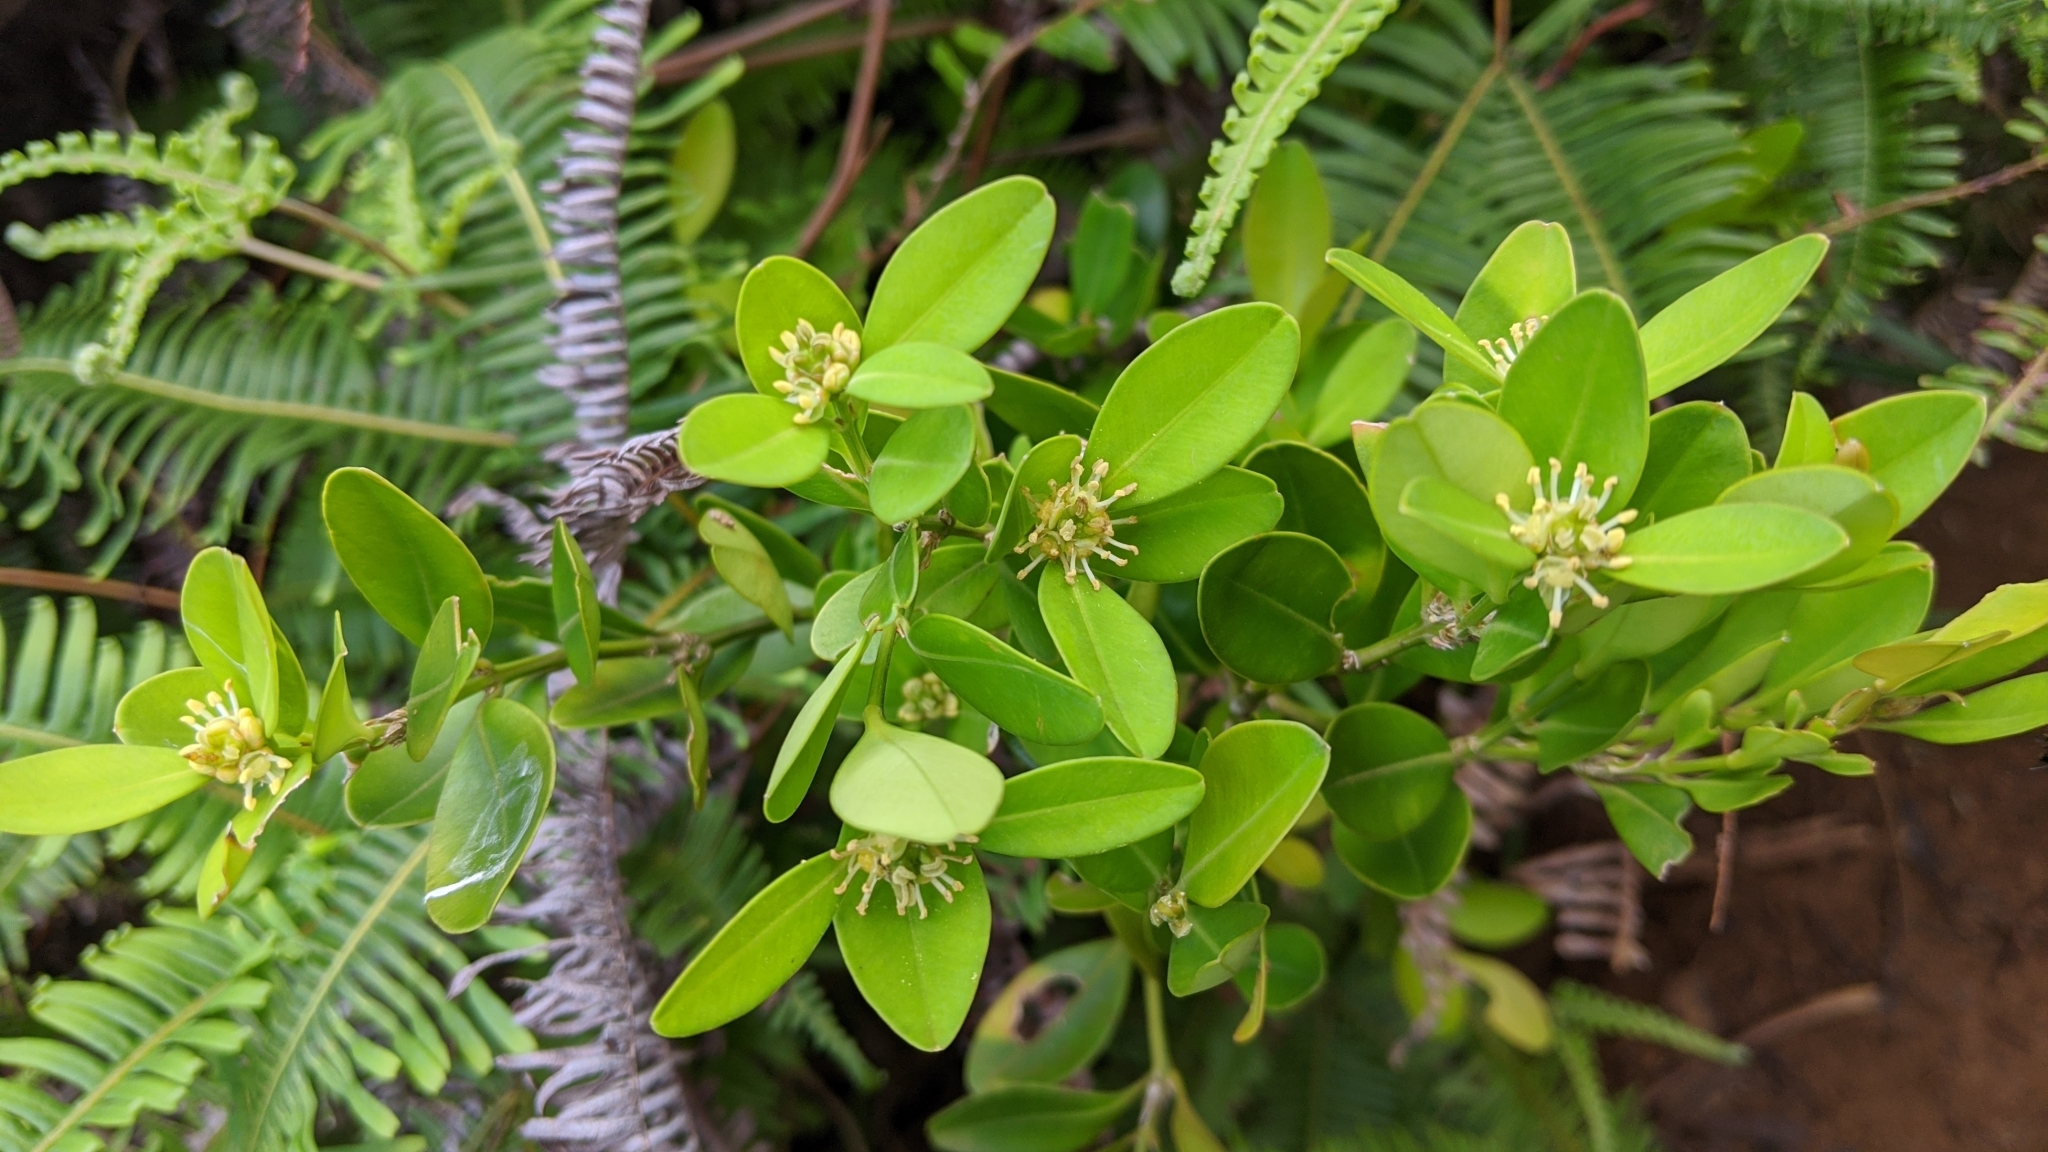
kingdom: Plantae
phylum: Tracheophyta
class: Magnoliopsida
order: Buxales
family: Buxaceae
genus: Buxus
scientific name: Buxus liukiuensis
